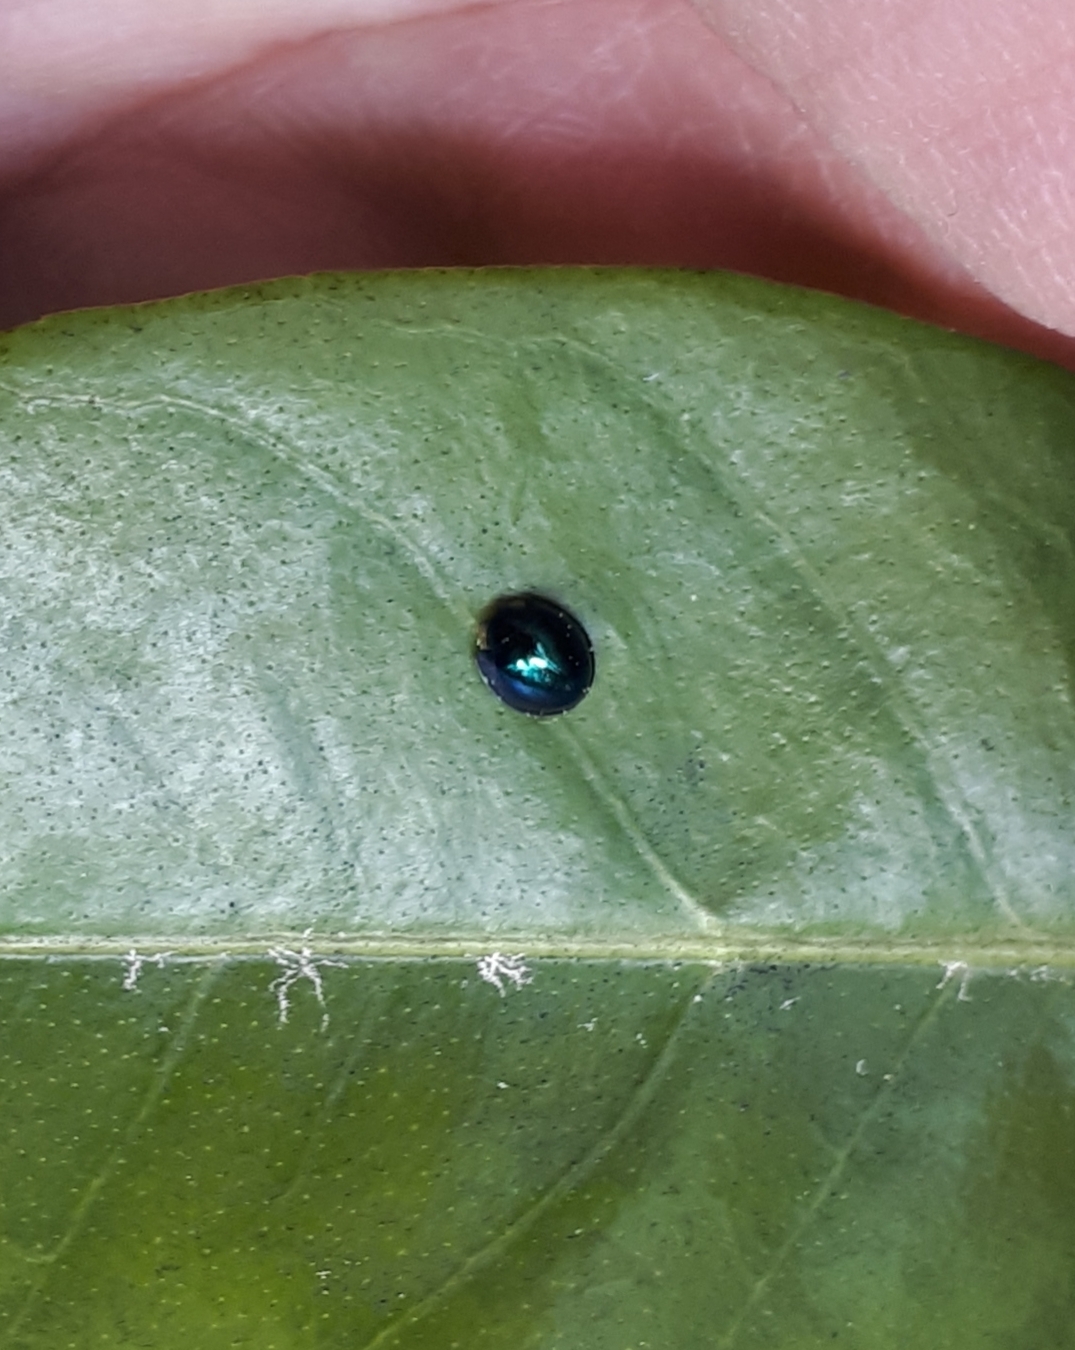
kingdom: Animalia
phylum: Arthropoda
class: Insecta
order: Coleoptera
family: Coccinellidae
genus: Halmus
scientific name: Halmus chalybeus
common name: Steel blue ladybird beetle
